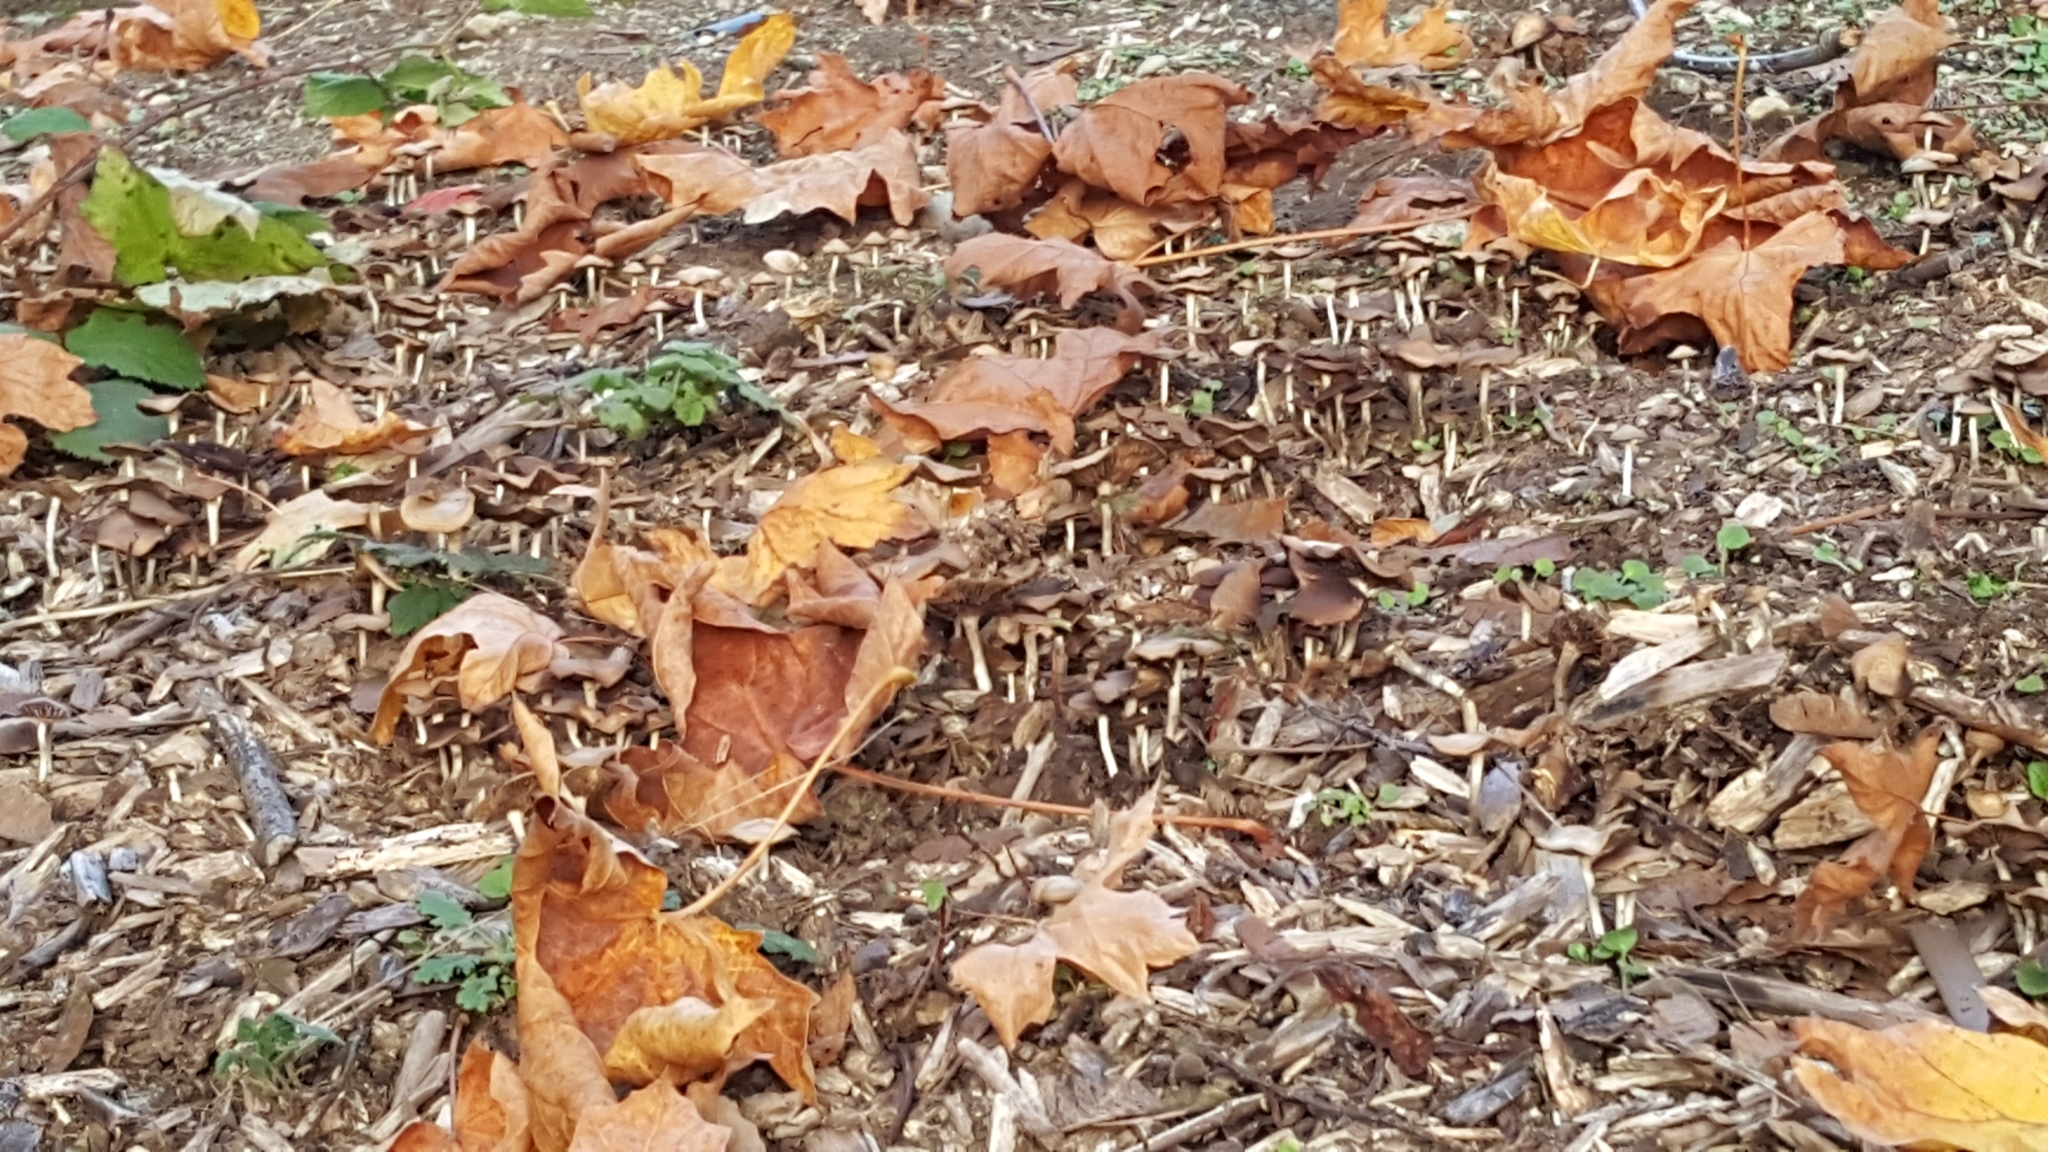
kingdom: Fungi
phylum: Basidiomycota
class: Agaricomycetes
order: Agaricales
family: Hymenogastraceae
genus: Psilocybe
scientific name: Psilocybe cyanescens
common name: Blueleg brownie
